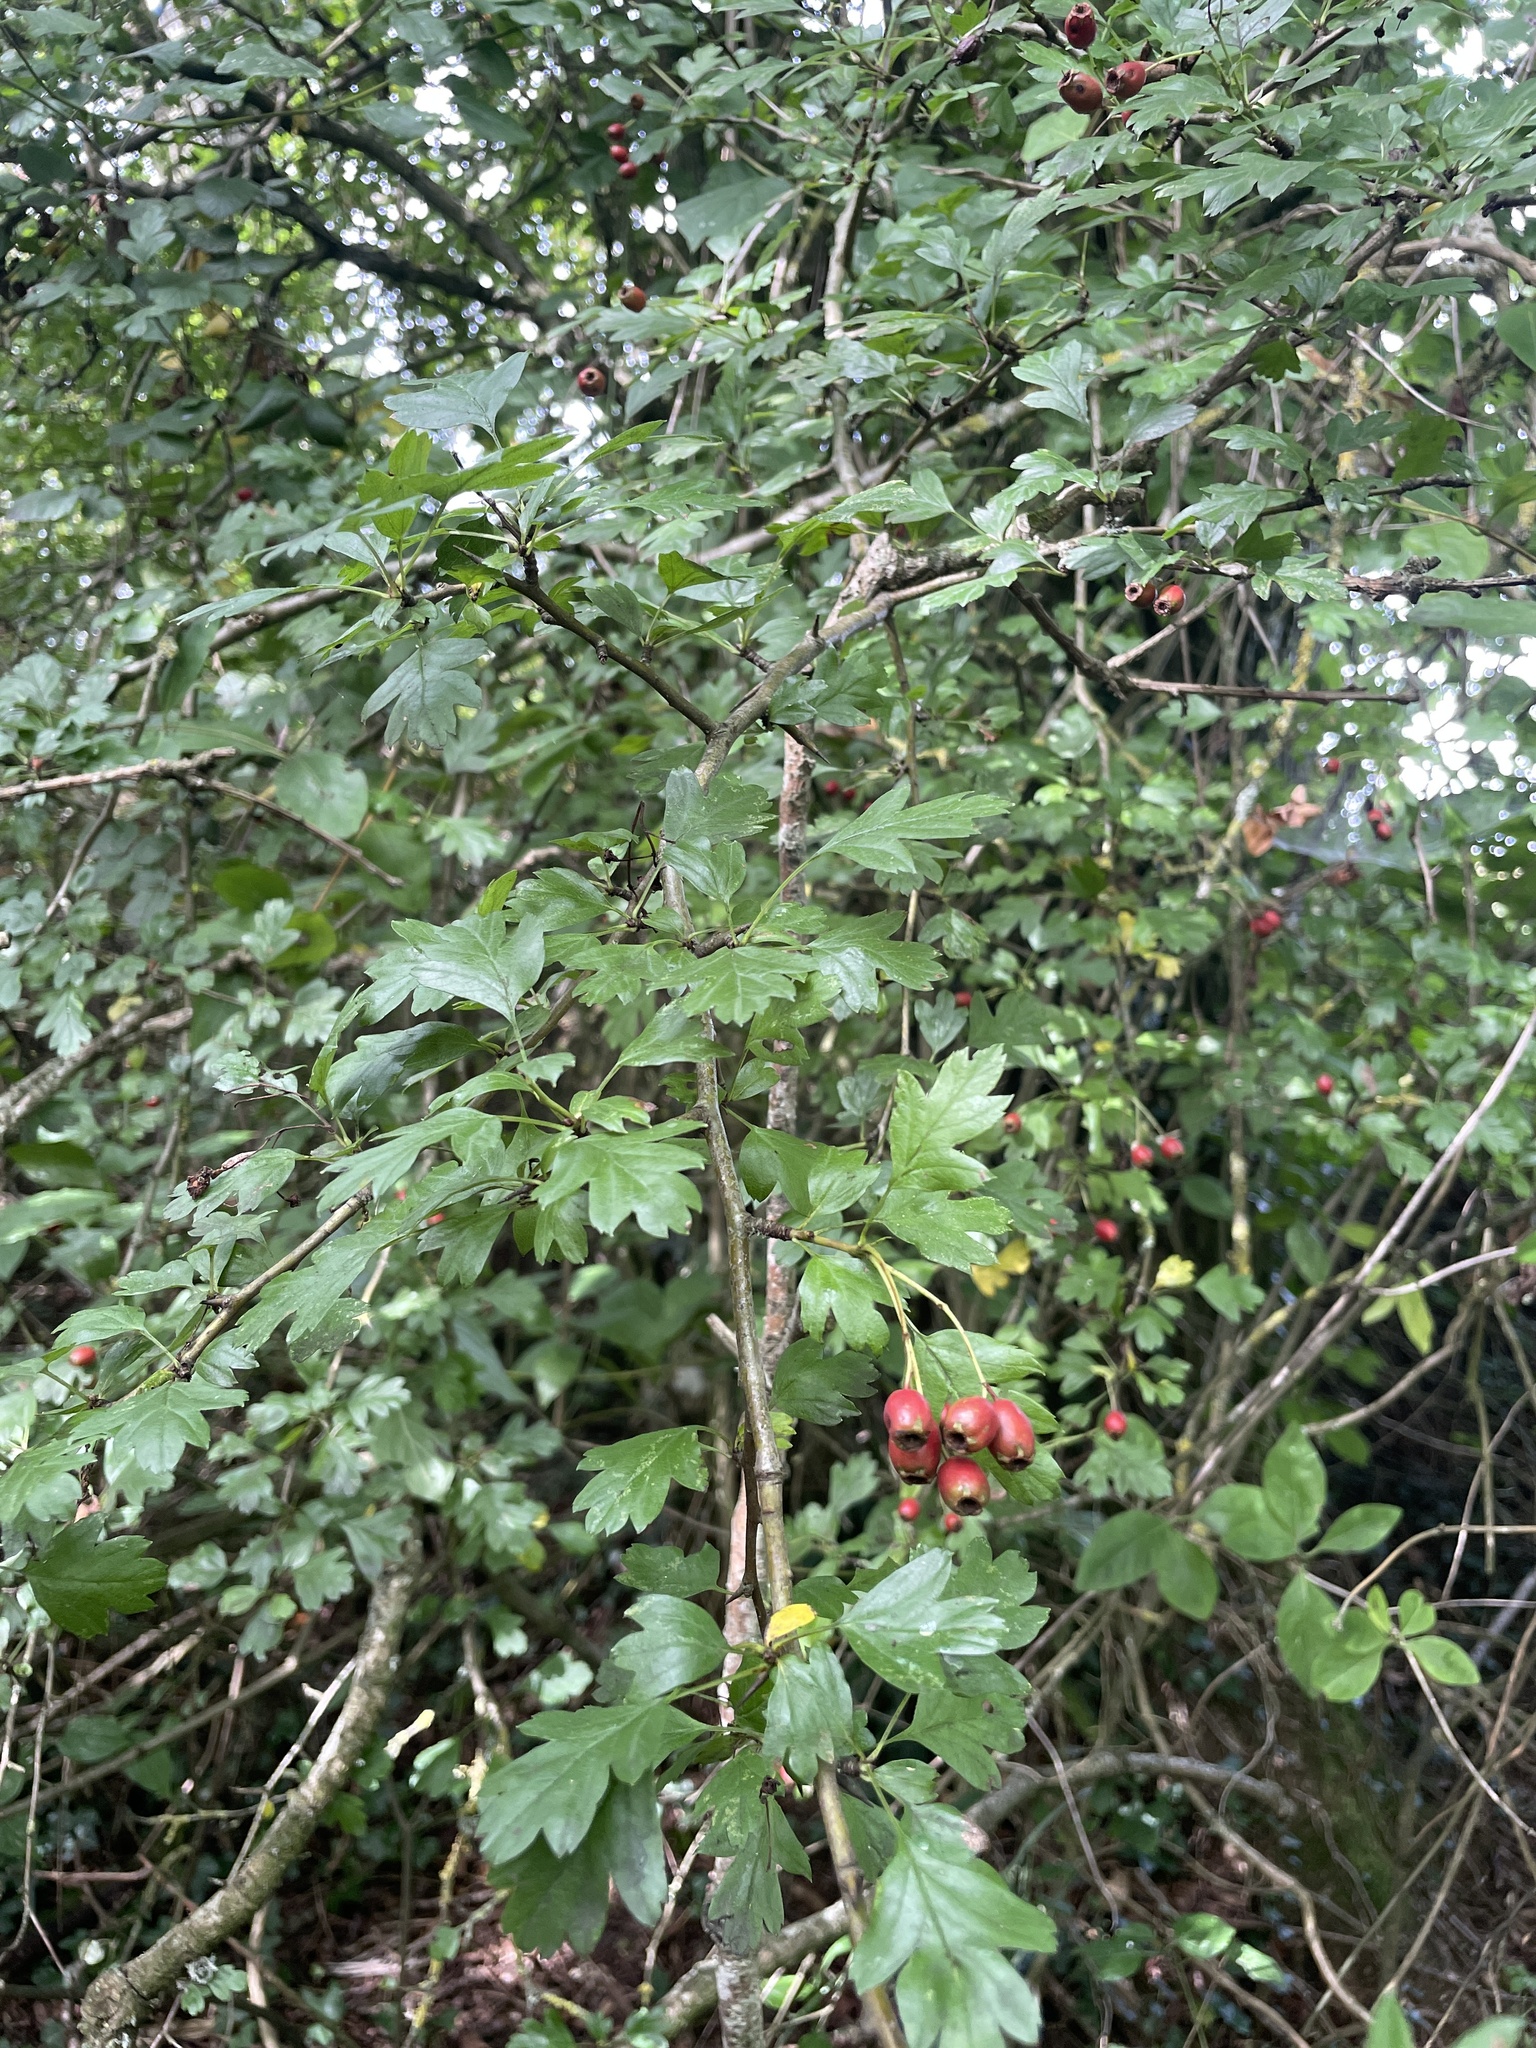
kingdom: Plantae
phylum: Tracheophyta
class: Magnoliopsida
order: Rosales
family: Rosaceae
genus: Crataegus
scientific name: Crataegus monogyna
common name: Hawthorn
